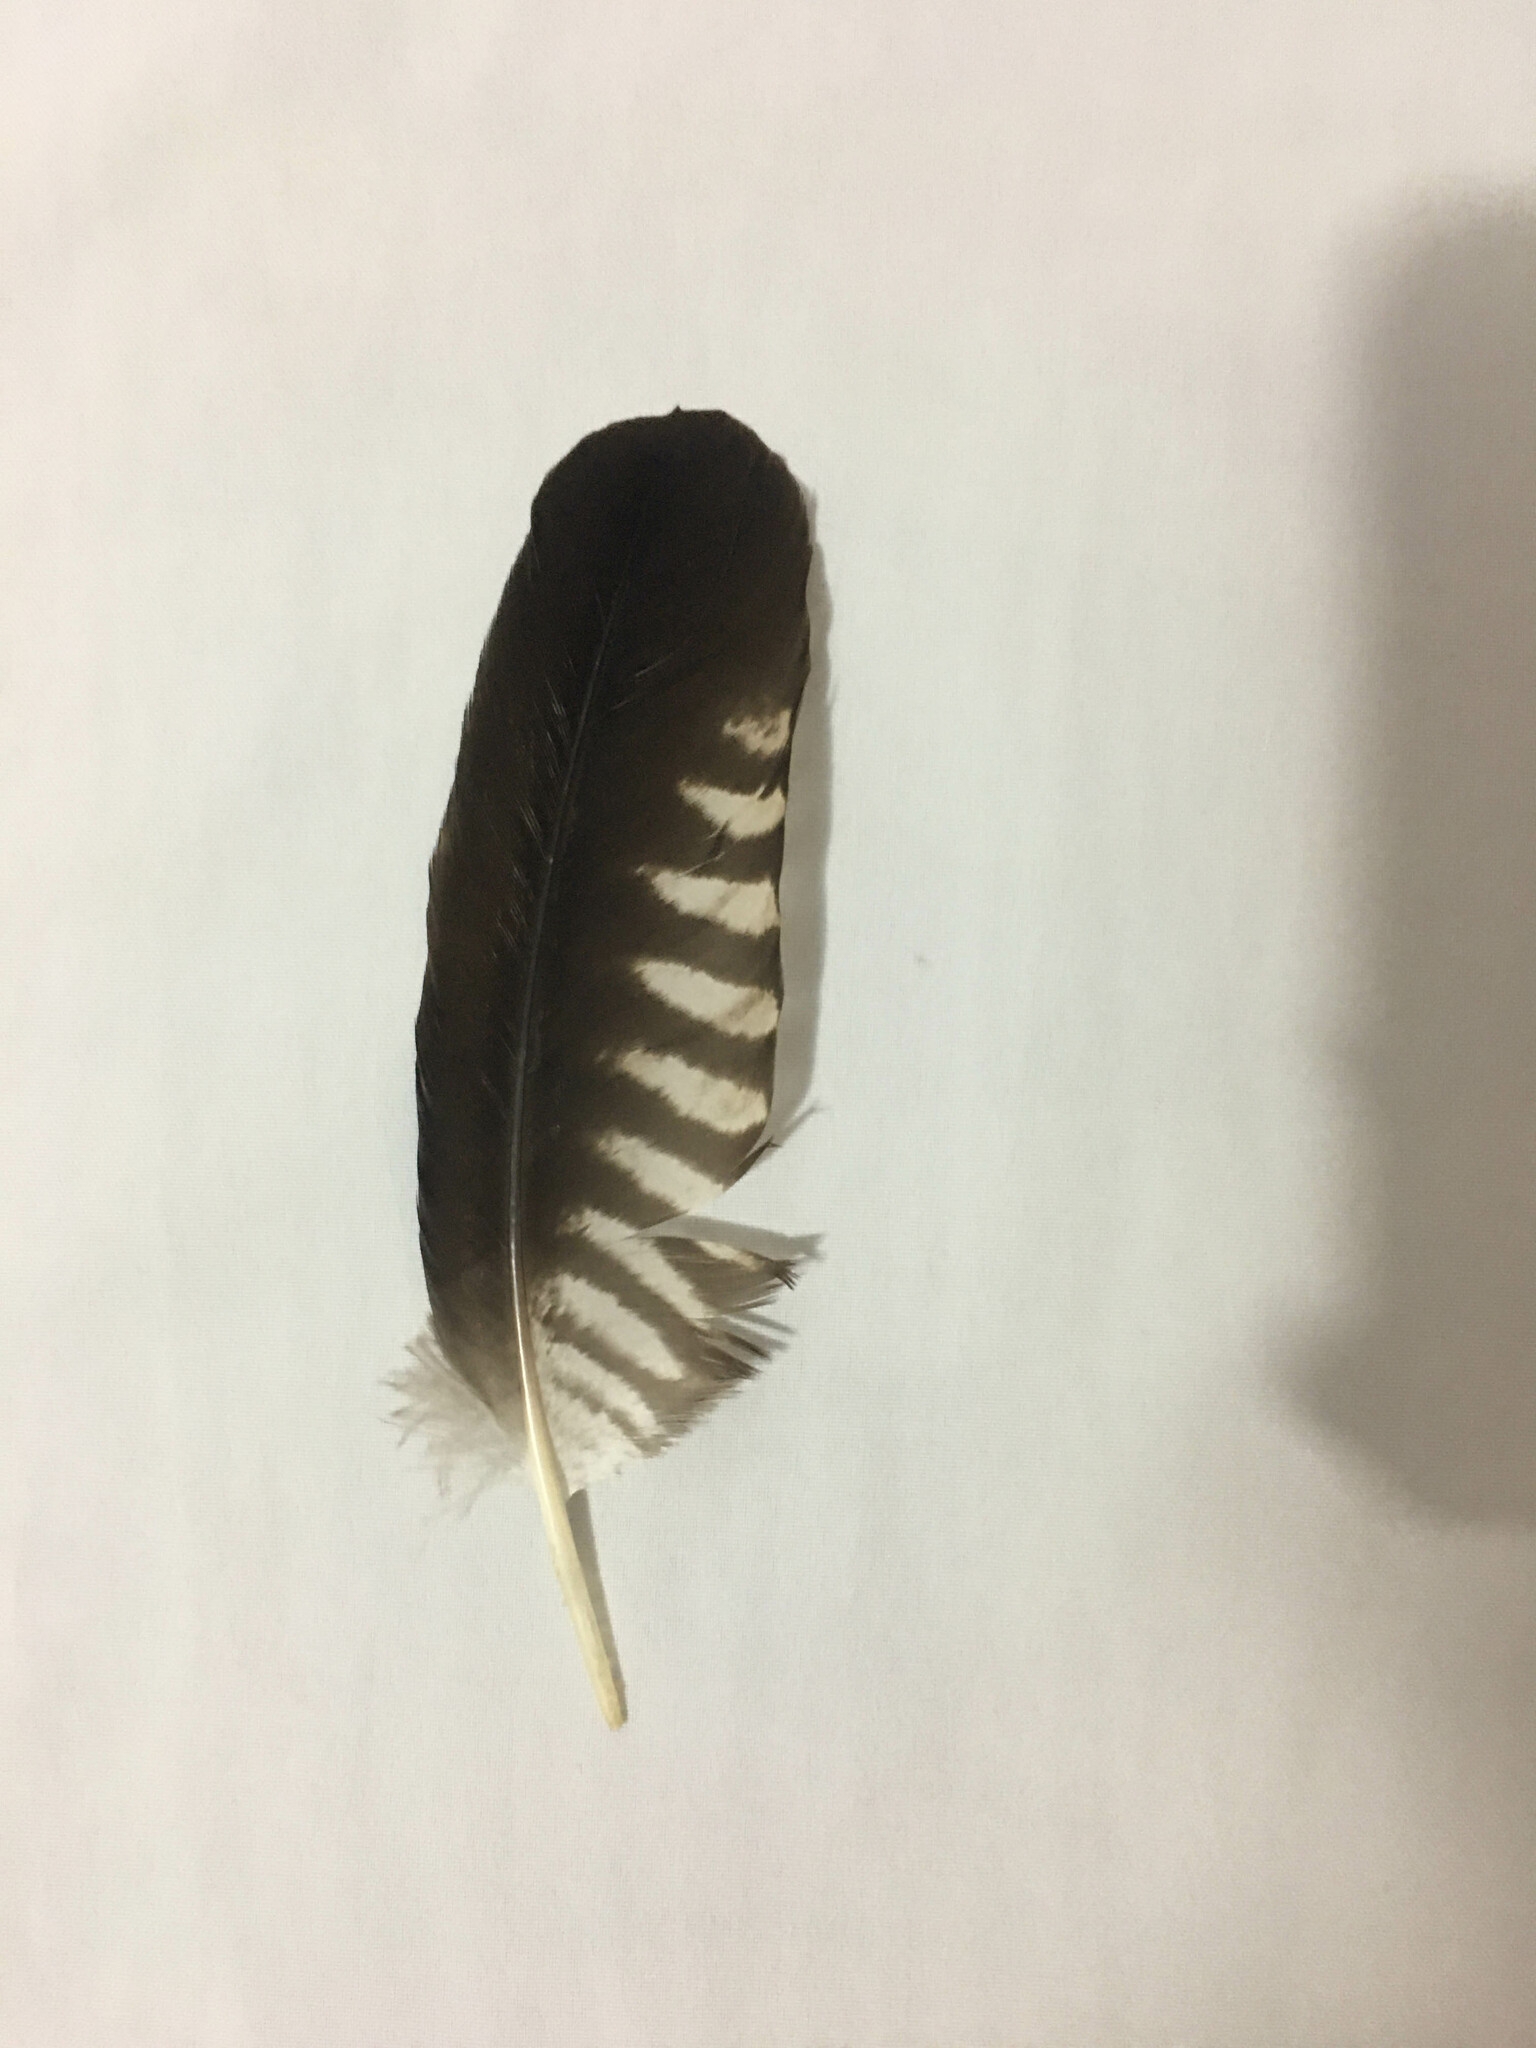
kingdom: Animalia
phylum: Chordata
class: Aves
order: Falconiformes
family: Falconidae
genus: Caracara
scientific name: Caracara plancus
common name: Southern caracara
